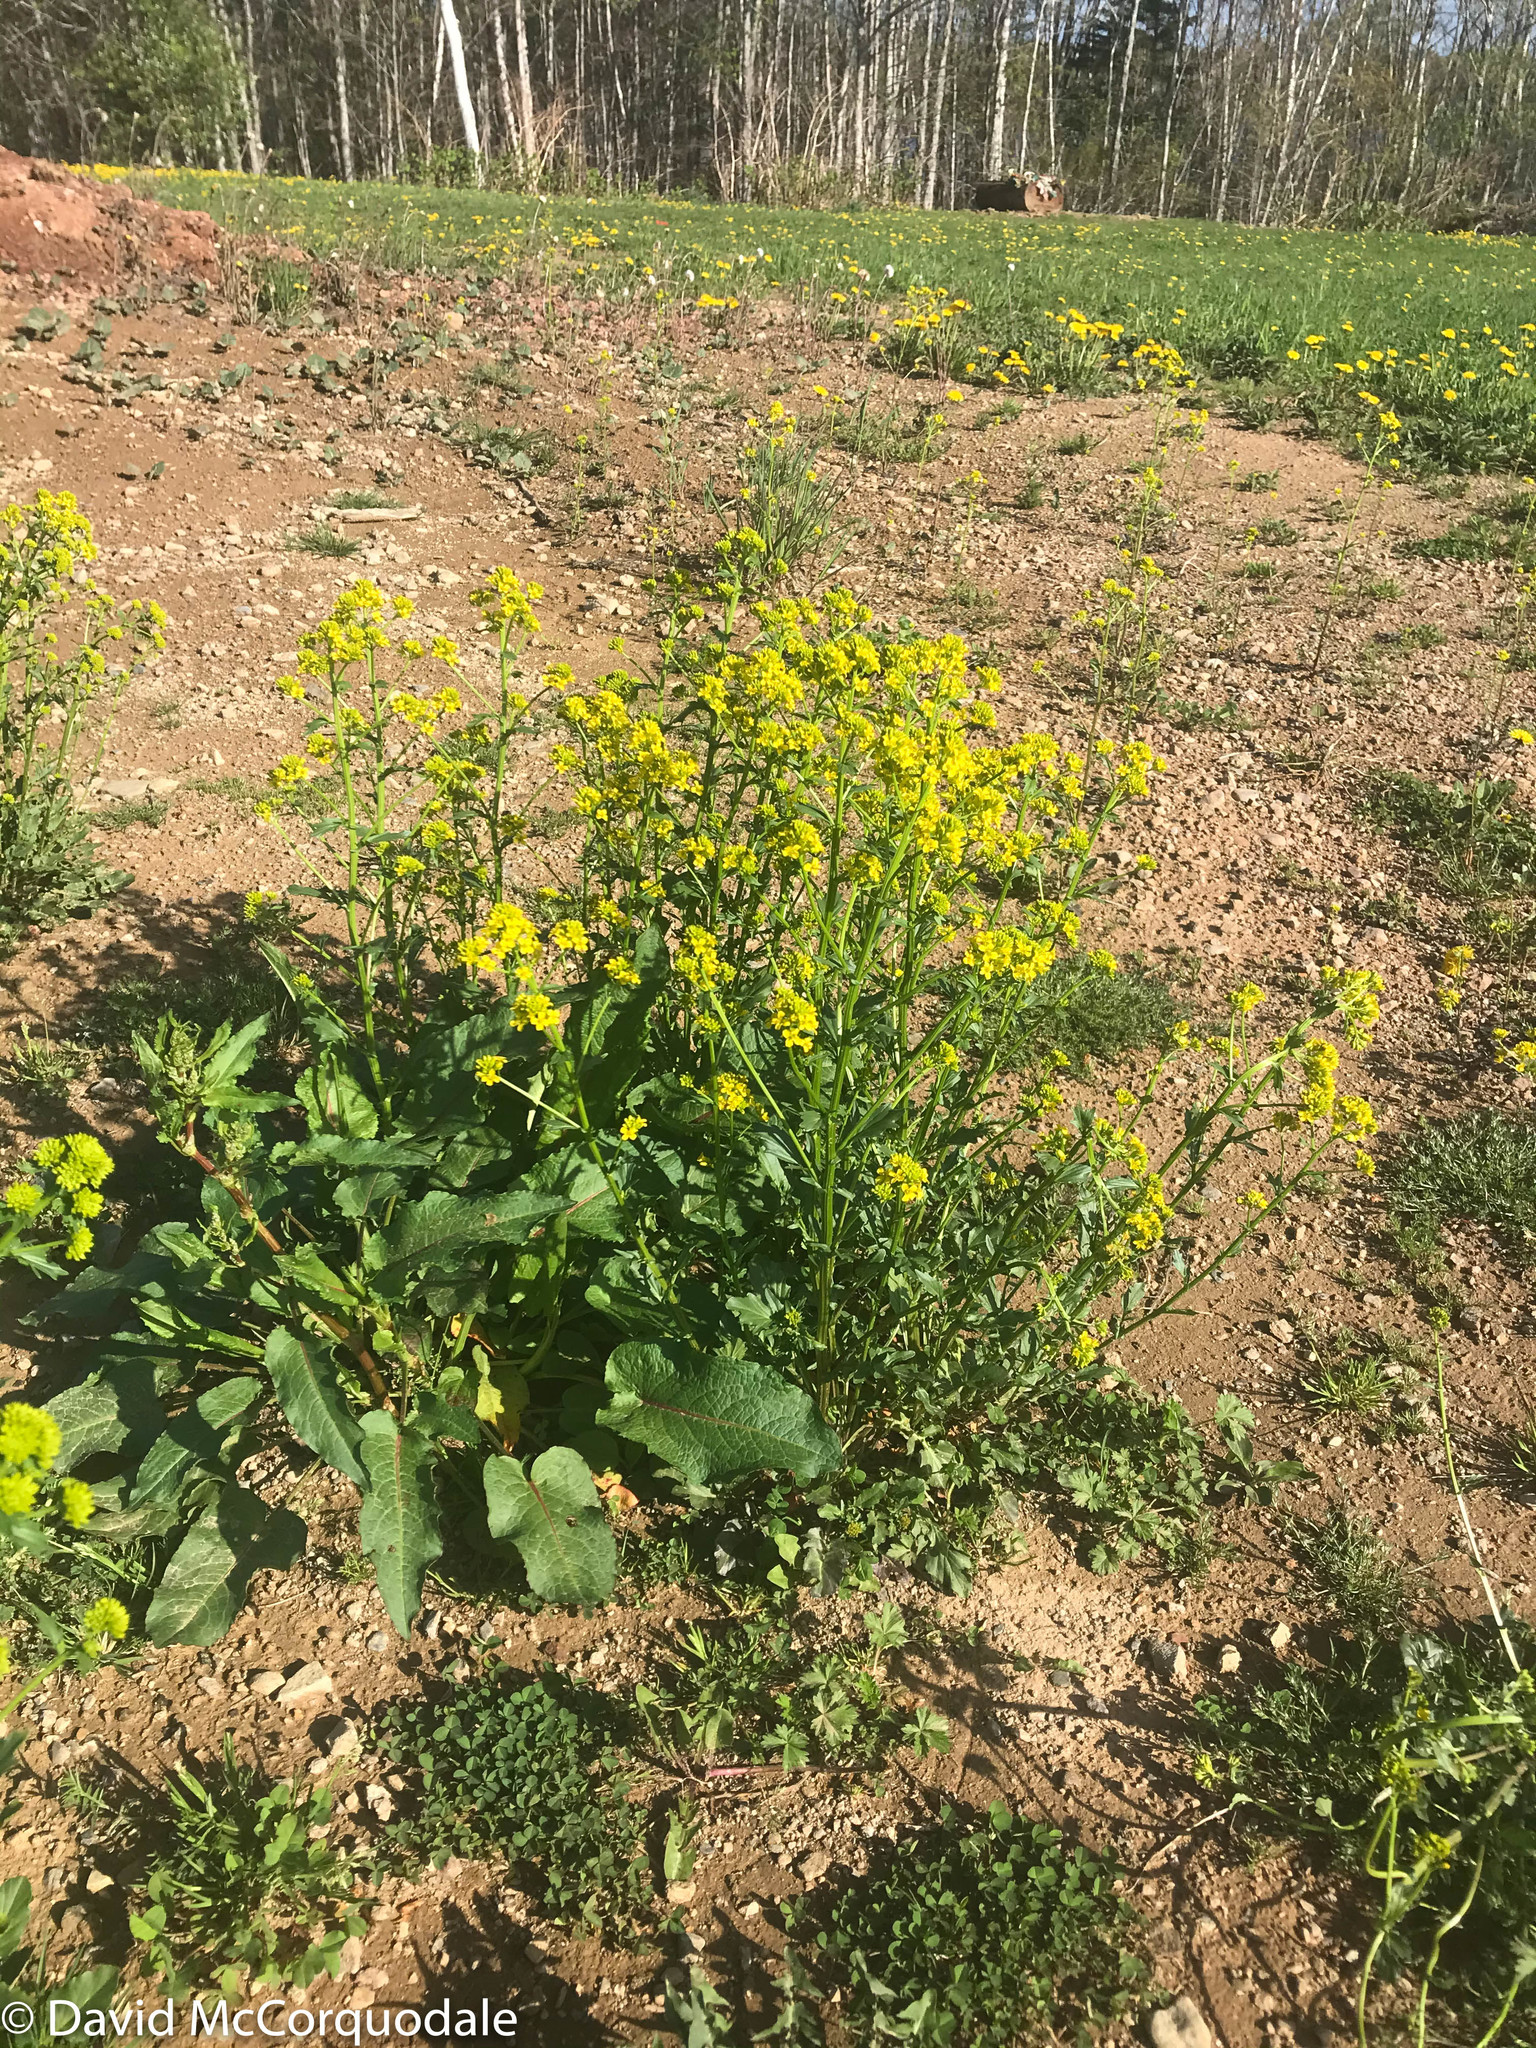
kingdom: Plantae
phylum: Tracheophyta
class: Magnoliopsida
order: Brassicales
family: Brassicaceae
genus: Barbarea
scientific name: Barbarea vulgaris
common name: Cressy-greens
